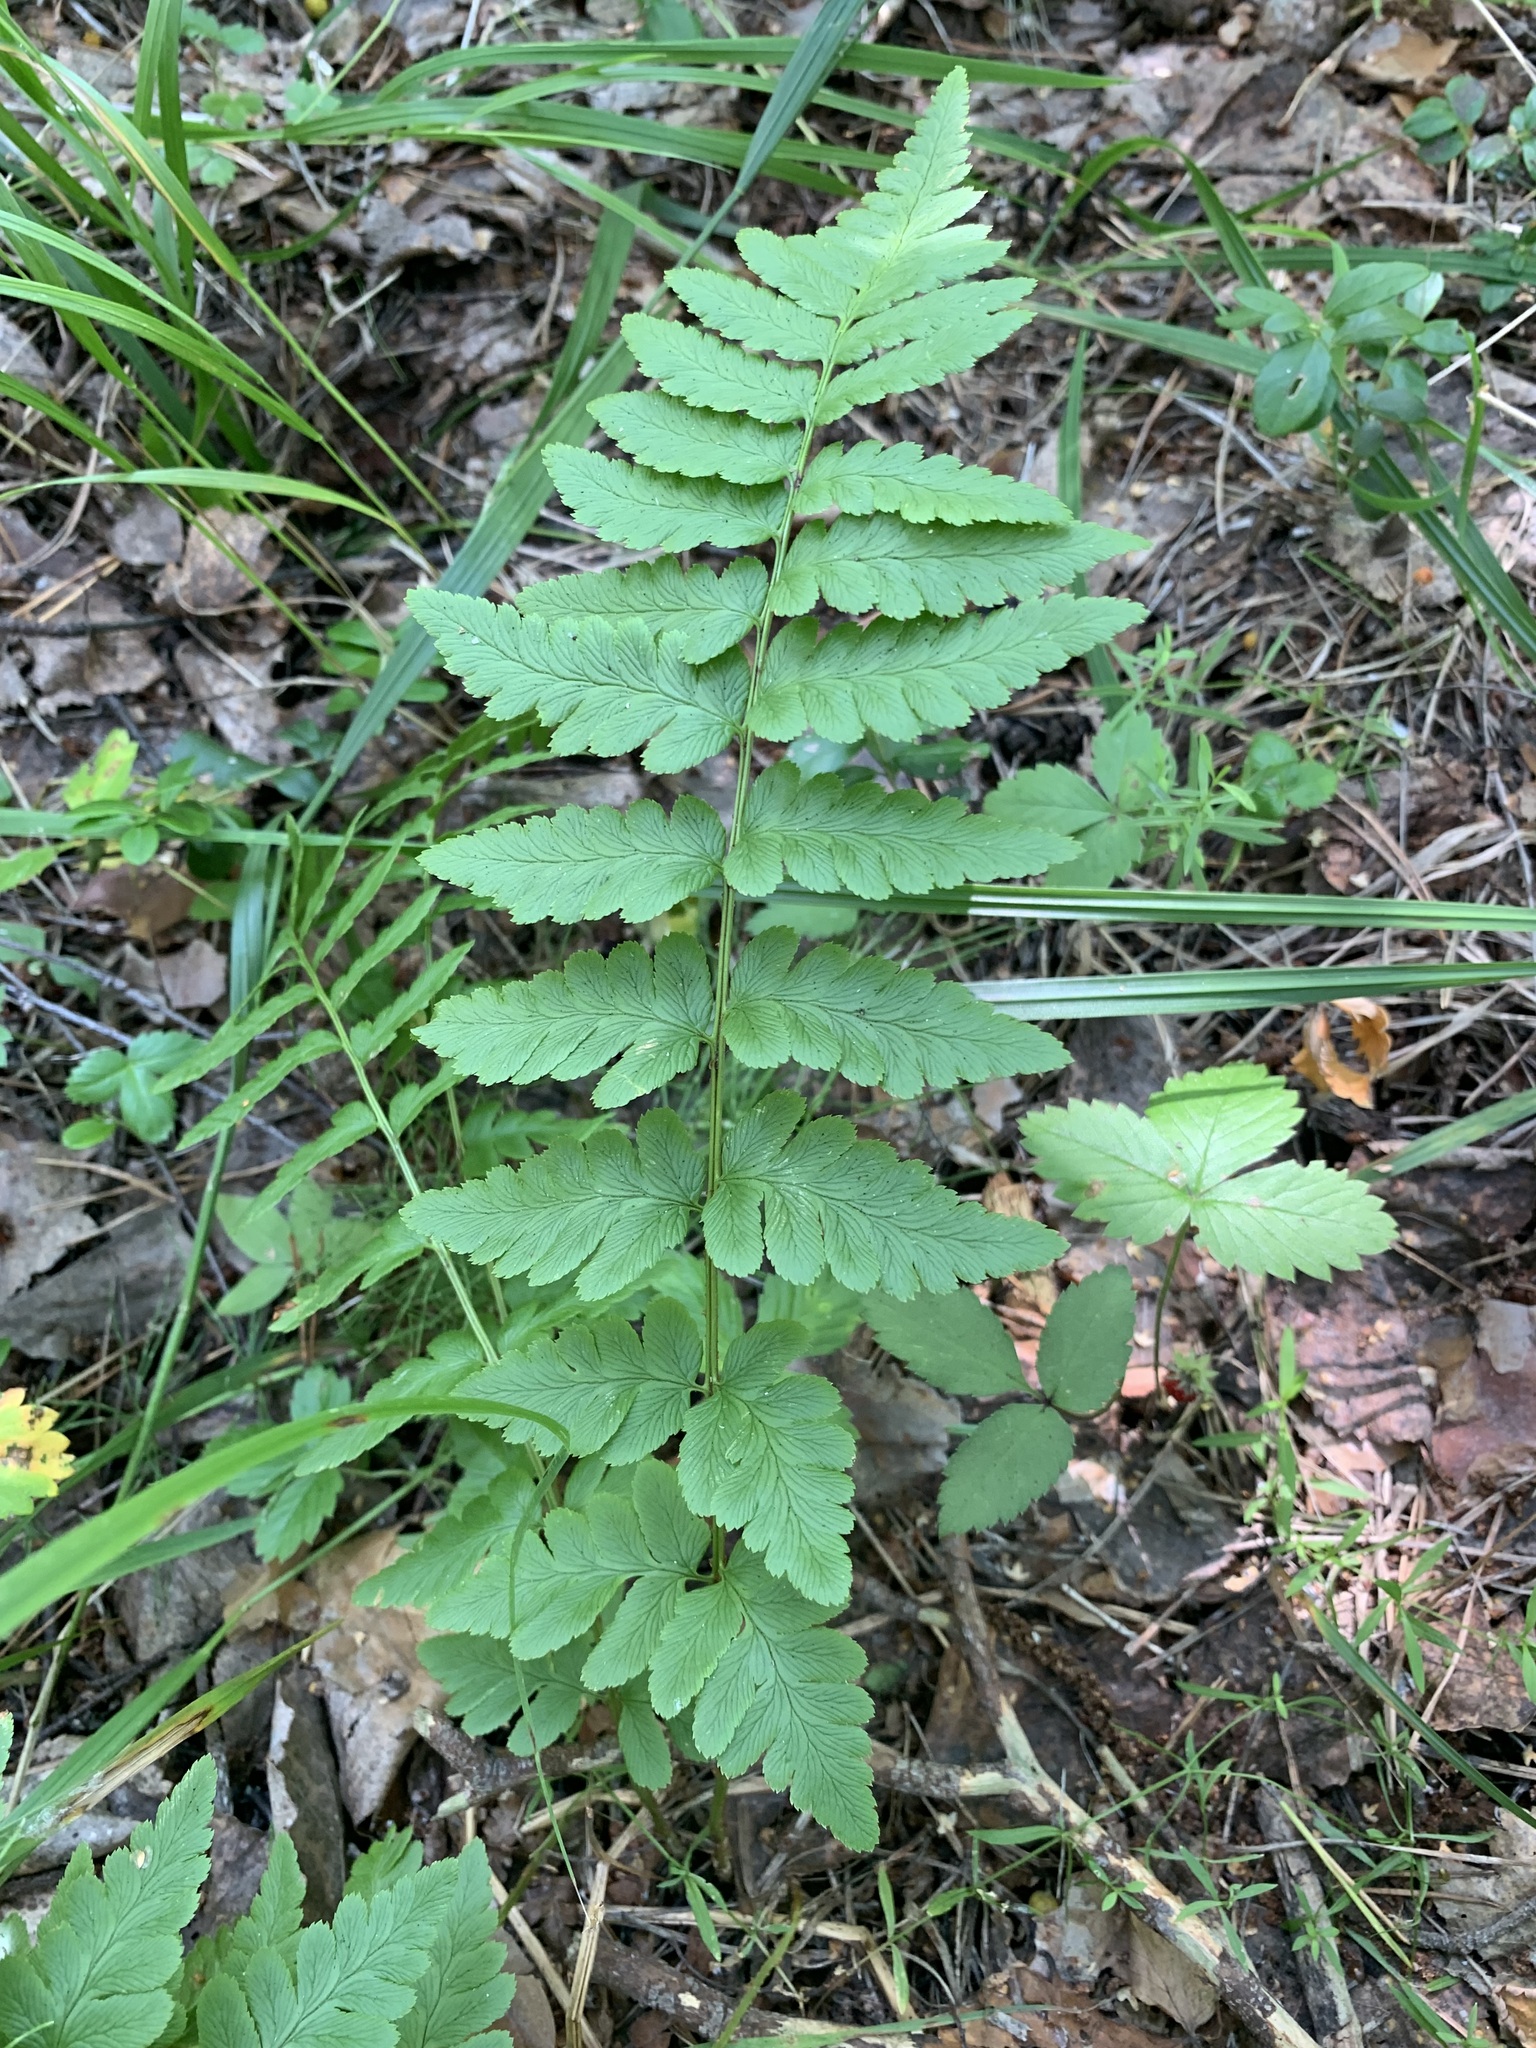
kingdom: Plantae
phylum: Tracheophyta
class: Polypodiopsida
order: Polypodiales
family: Dryopteridaceae
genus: Dryopteris
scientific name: Dryopteris cristata
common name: Crested wood fern
